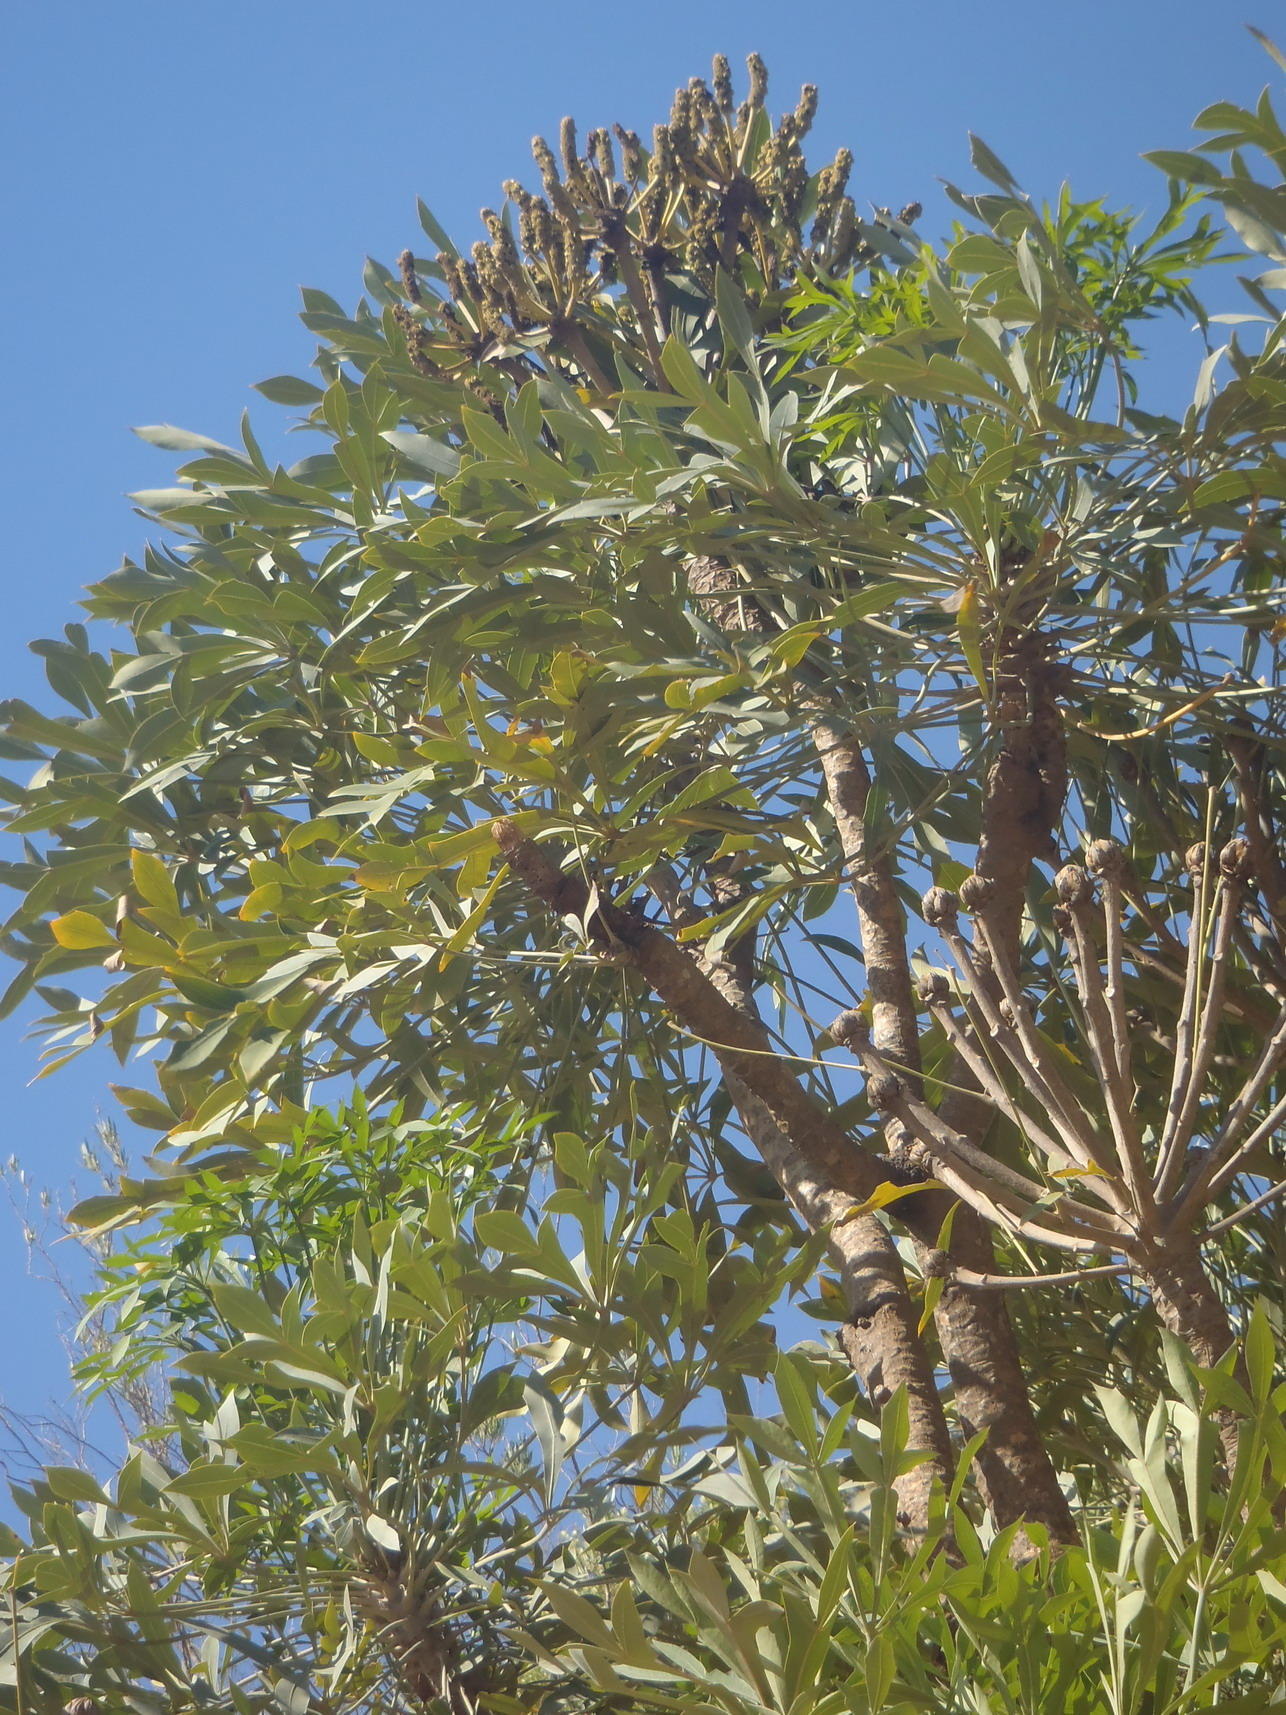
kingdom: Plantae
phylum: Tracheophyta
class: Magnoliopsida
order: Apiales
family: Araliaceae
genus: Cussonia
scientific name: Cussonia spicata
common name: Common cabbagetree
